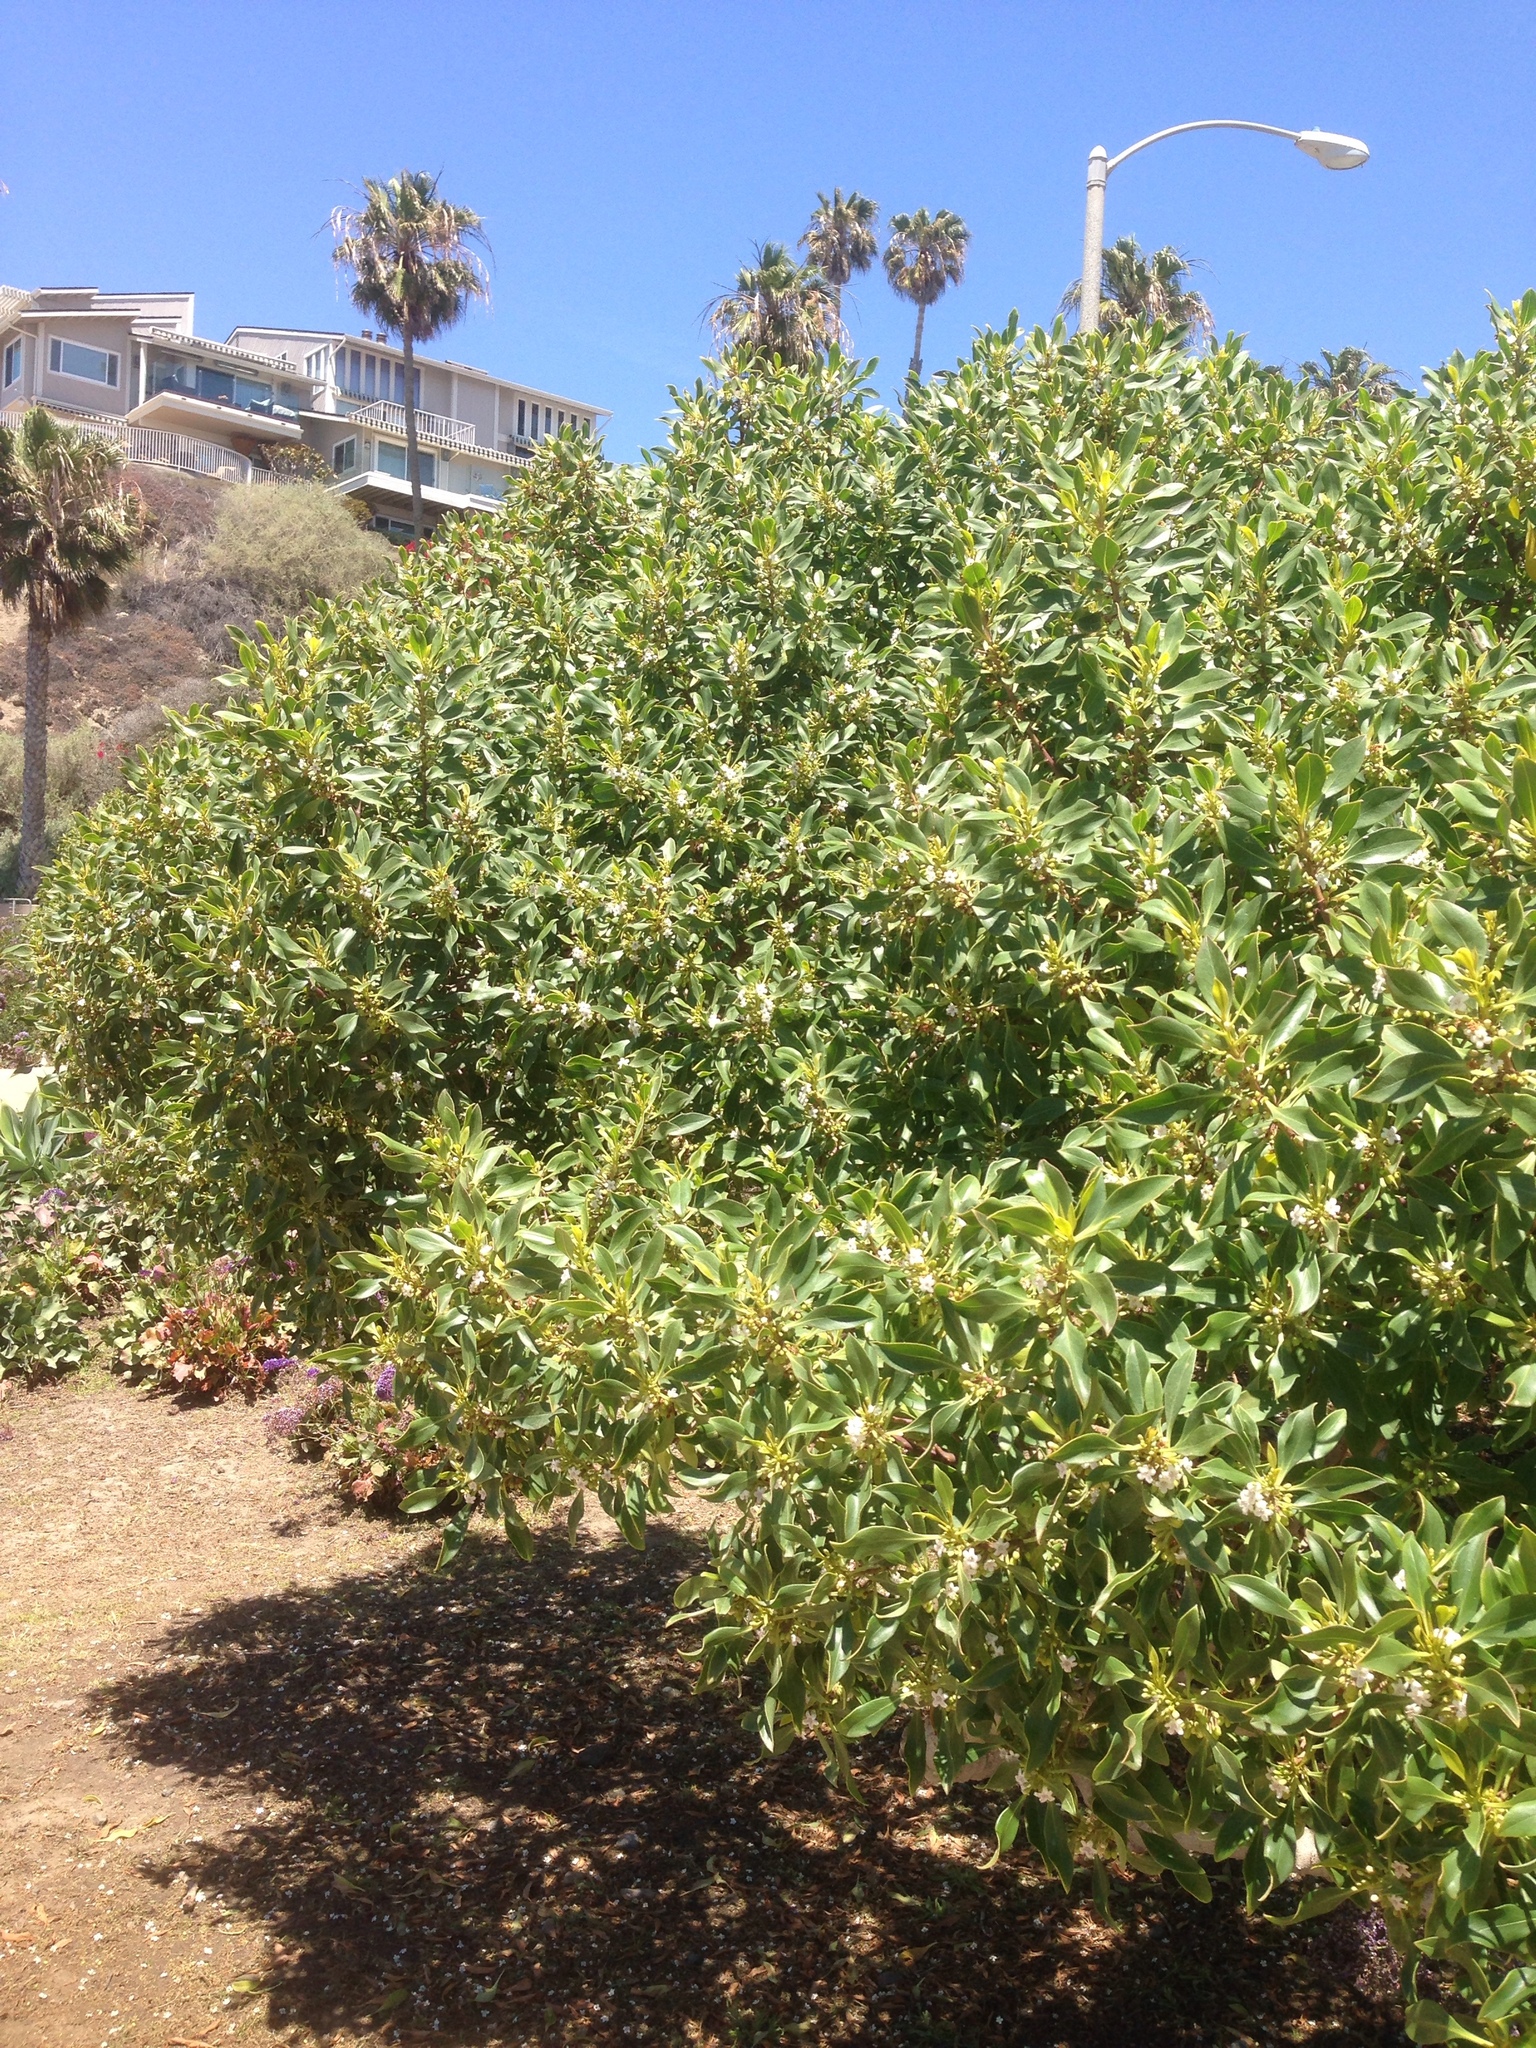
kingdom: Plantae
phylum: Tracheophyta
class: Magnoliopsida
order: Lamiales
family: Scrophulariaceae
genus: Myoporum
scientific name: Myoporum laetum
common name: Ngaio tree
